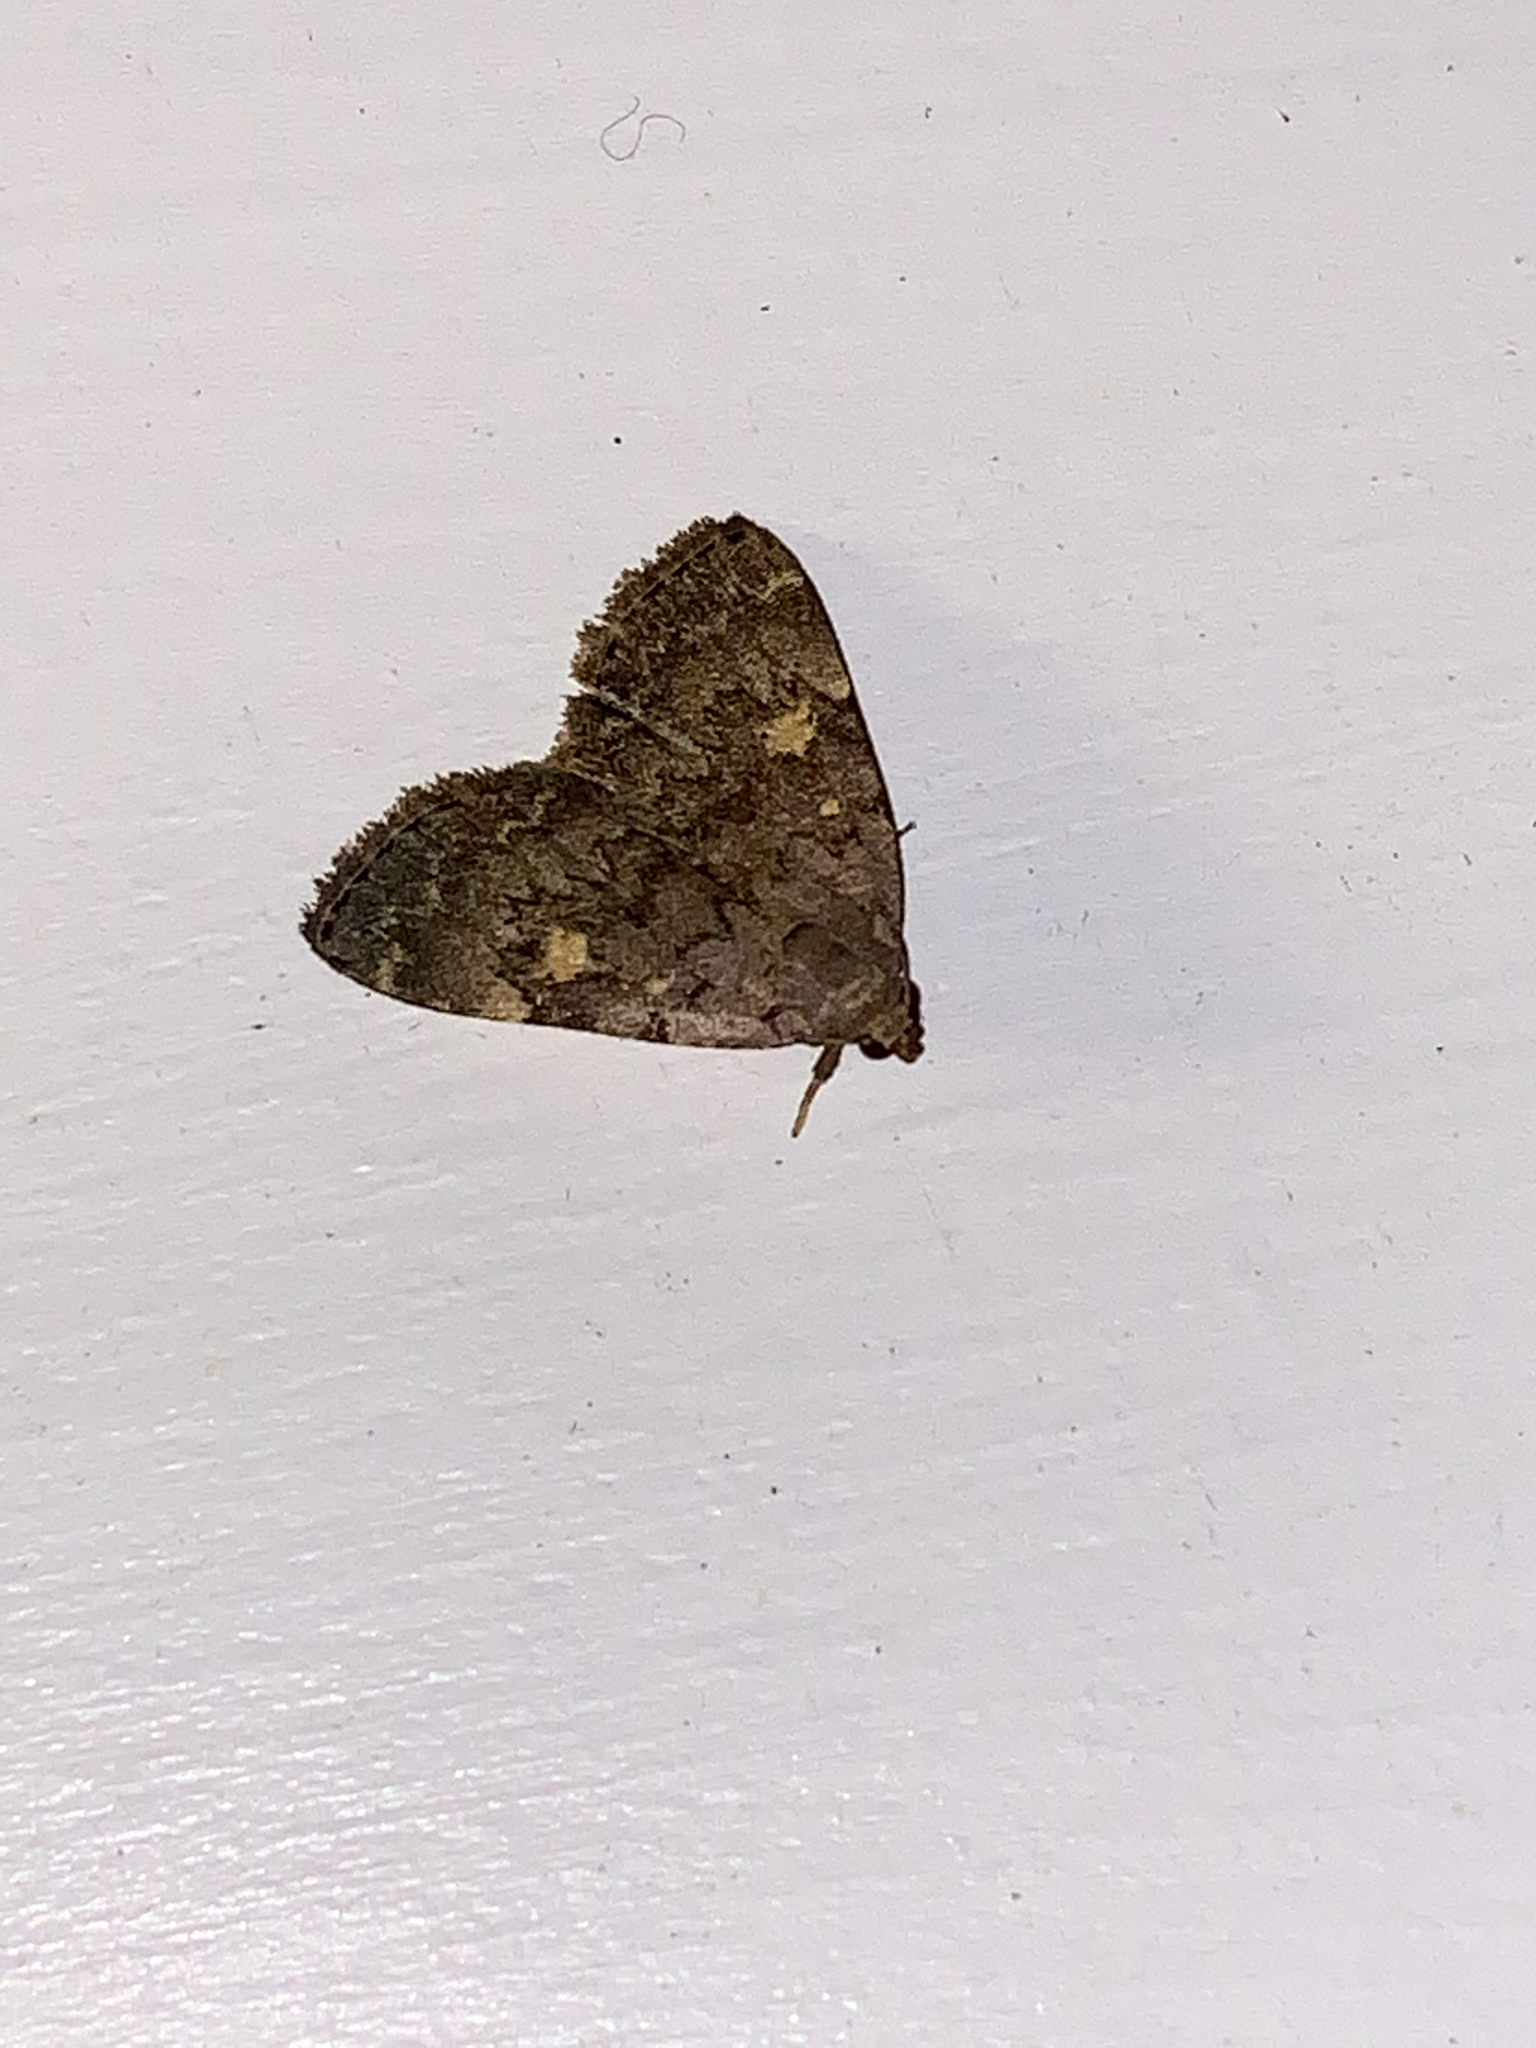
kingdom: Animalia
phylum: Arthropoda
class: Insecta
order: Lepidoptera
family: Erebidae
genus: Idia
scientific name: Idia aemula
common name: Common idia moth
